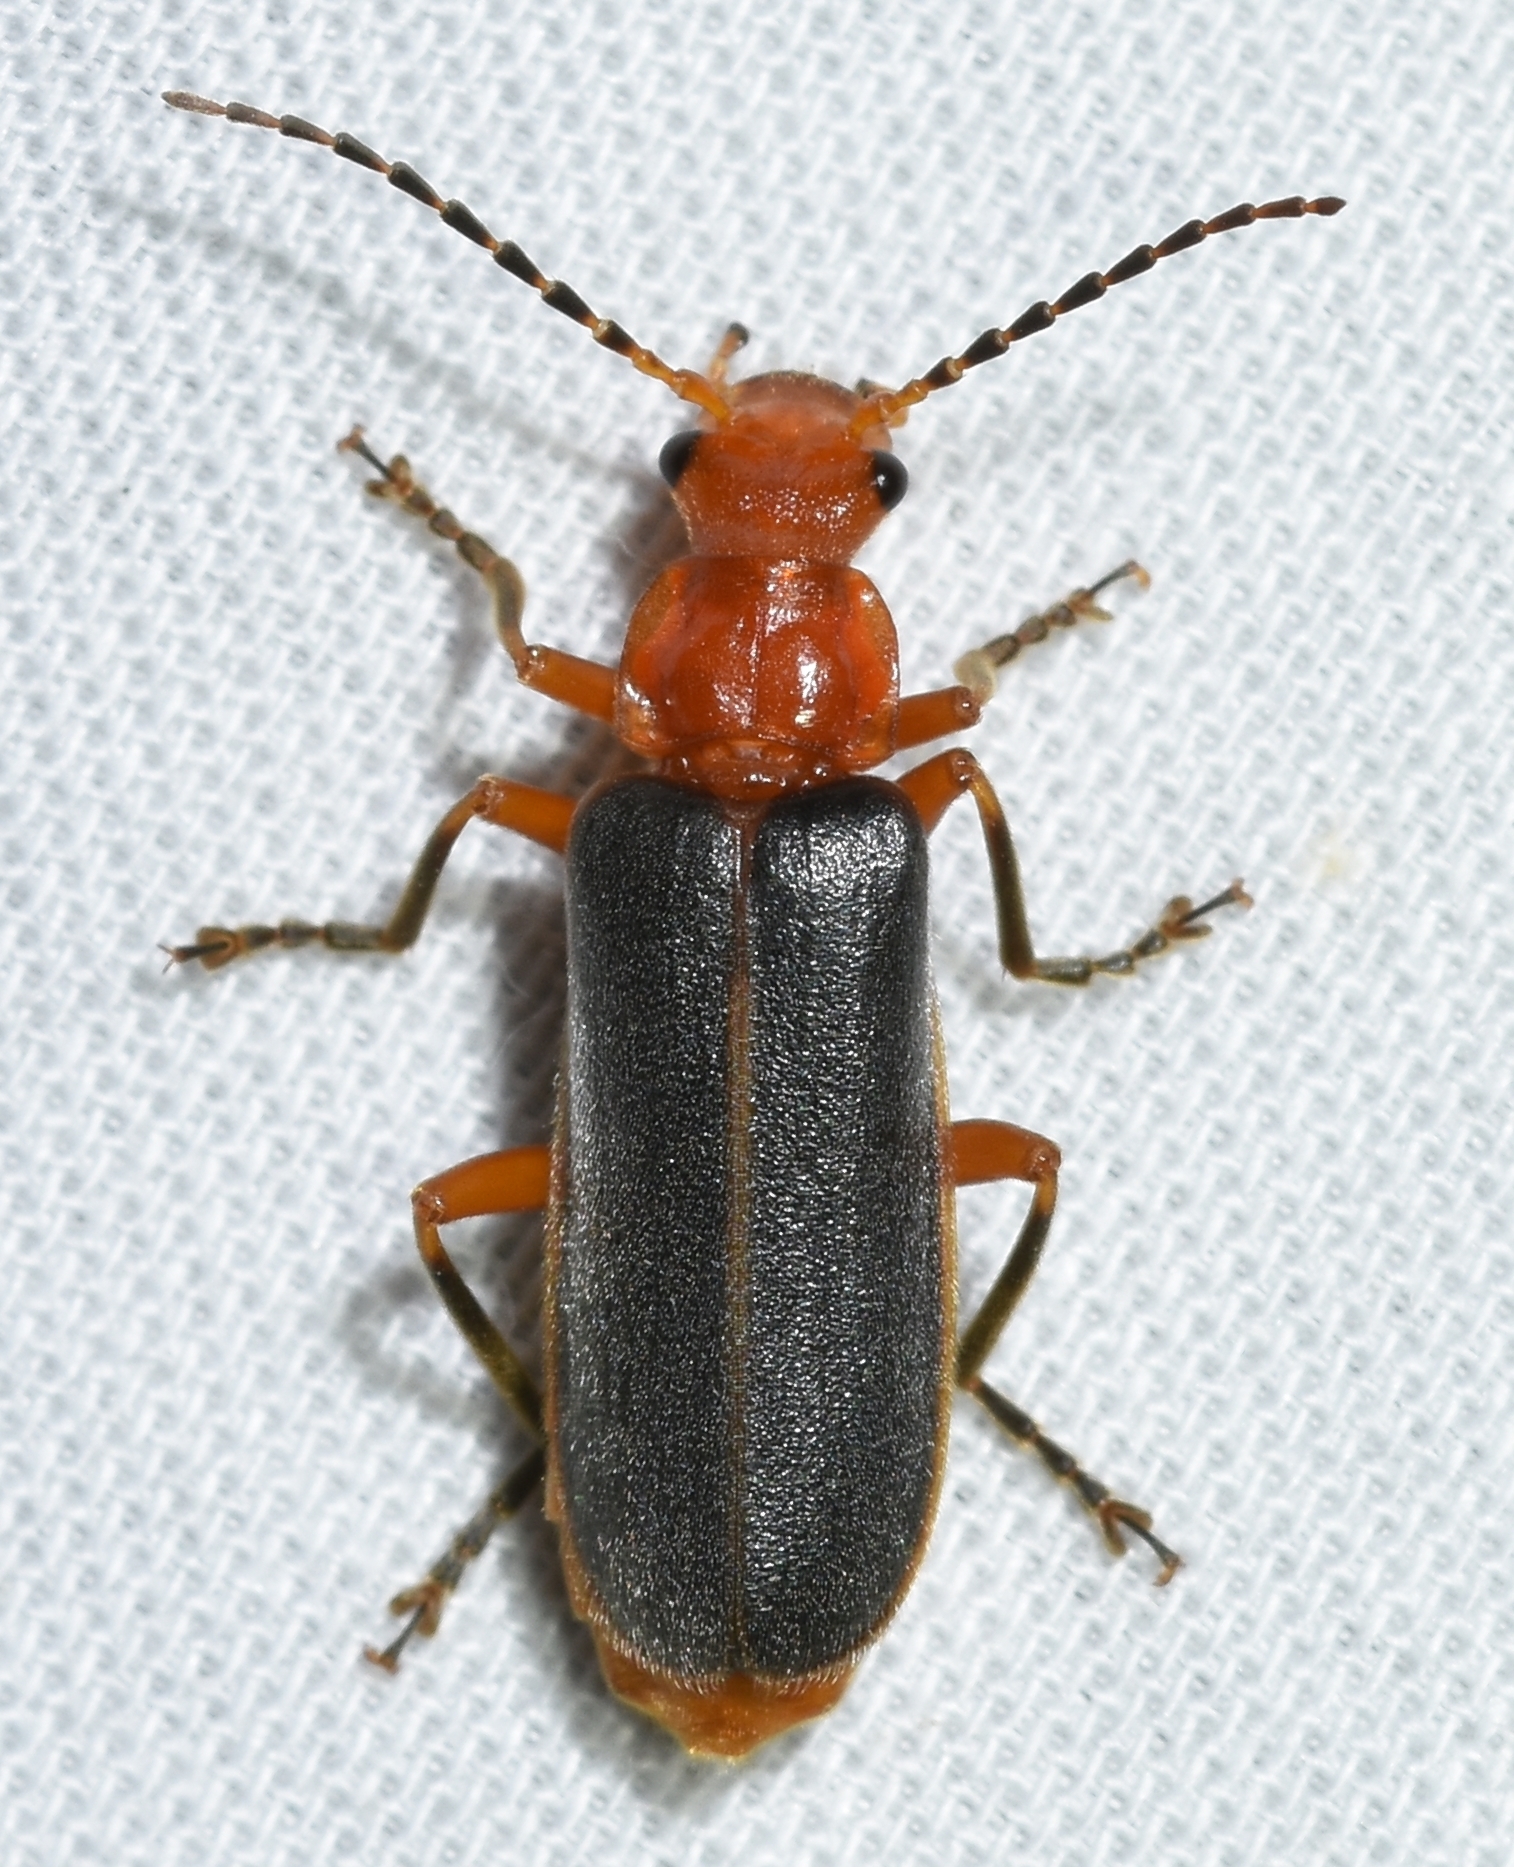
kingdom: Animalia
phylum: Arthropoda
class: Insecta
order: Coleoptera
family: Cantharidae
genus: Podabrus
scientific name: Podabrus tomentosus
